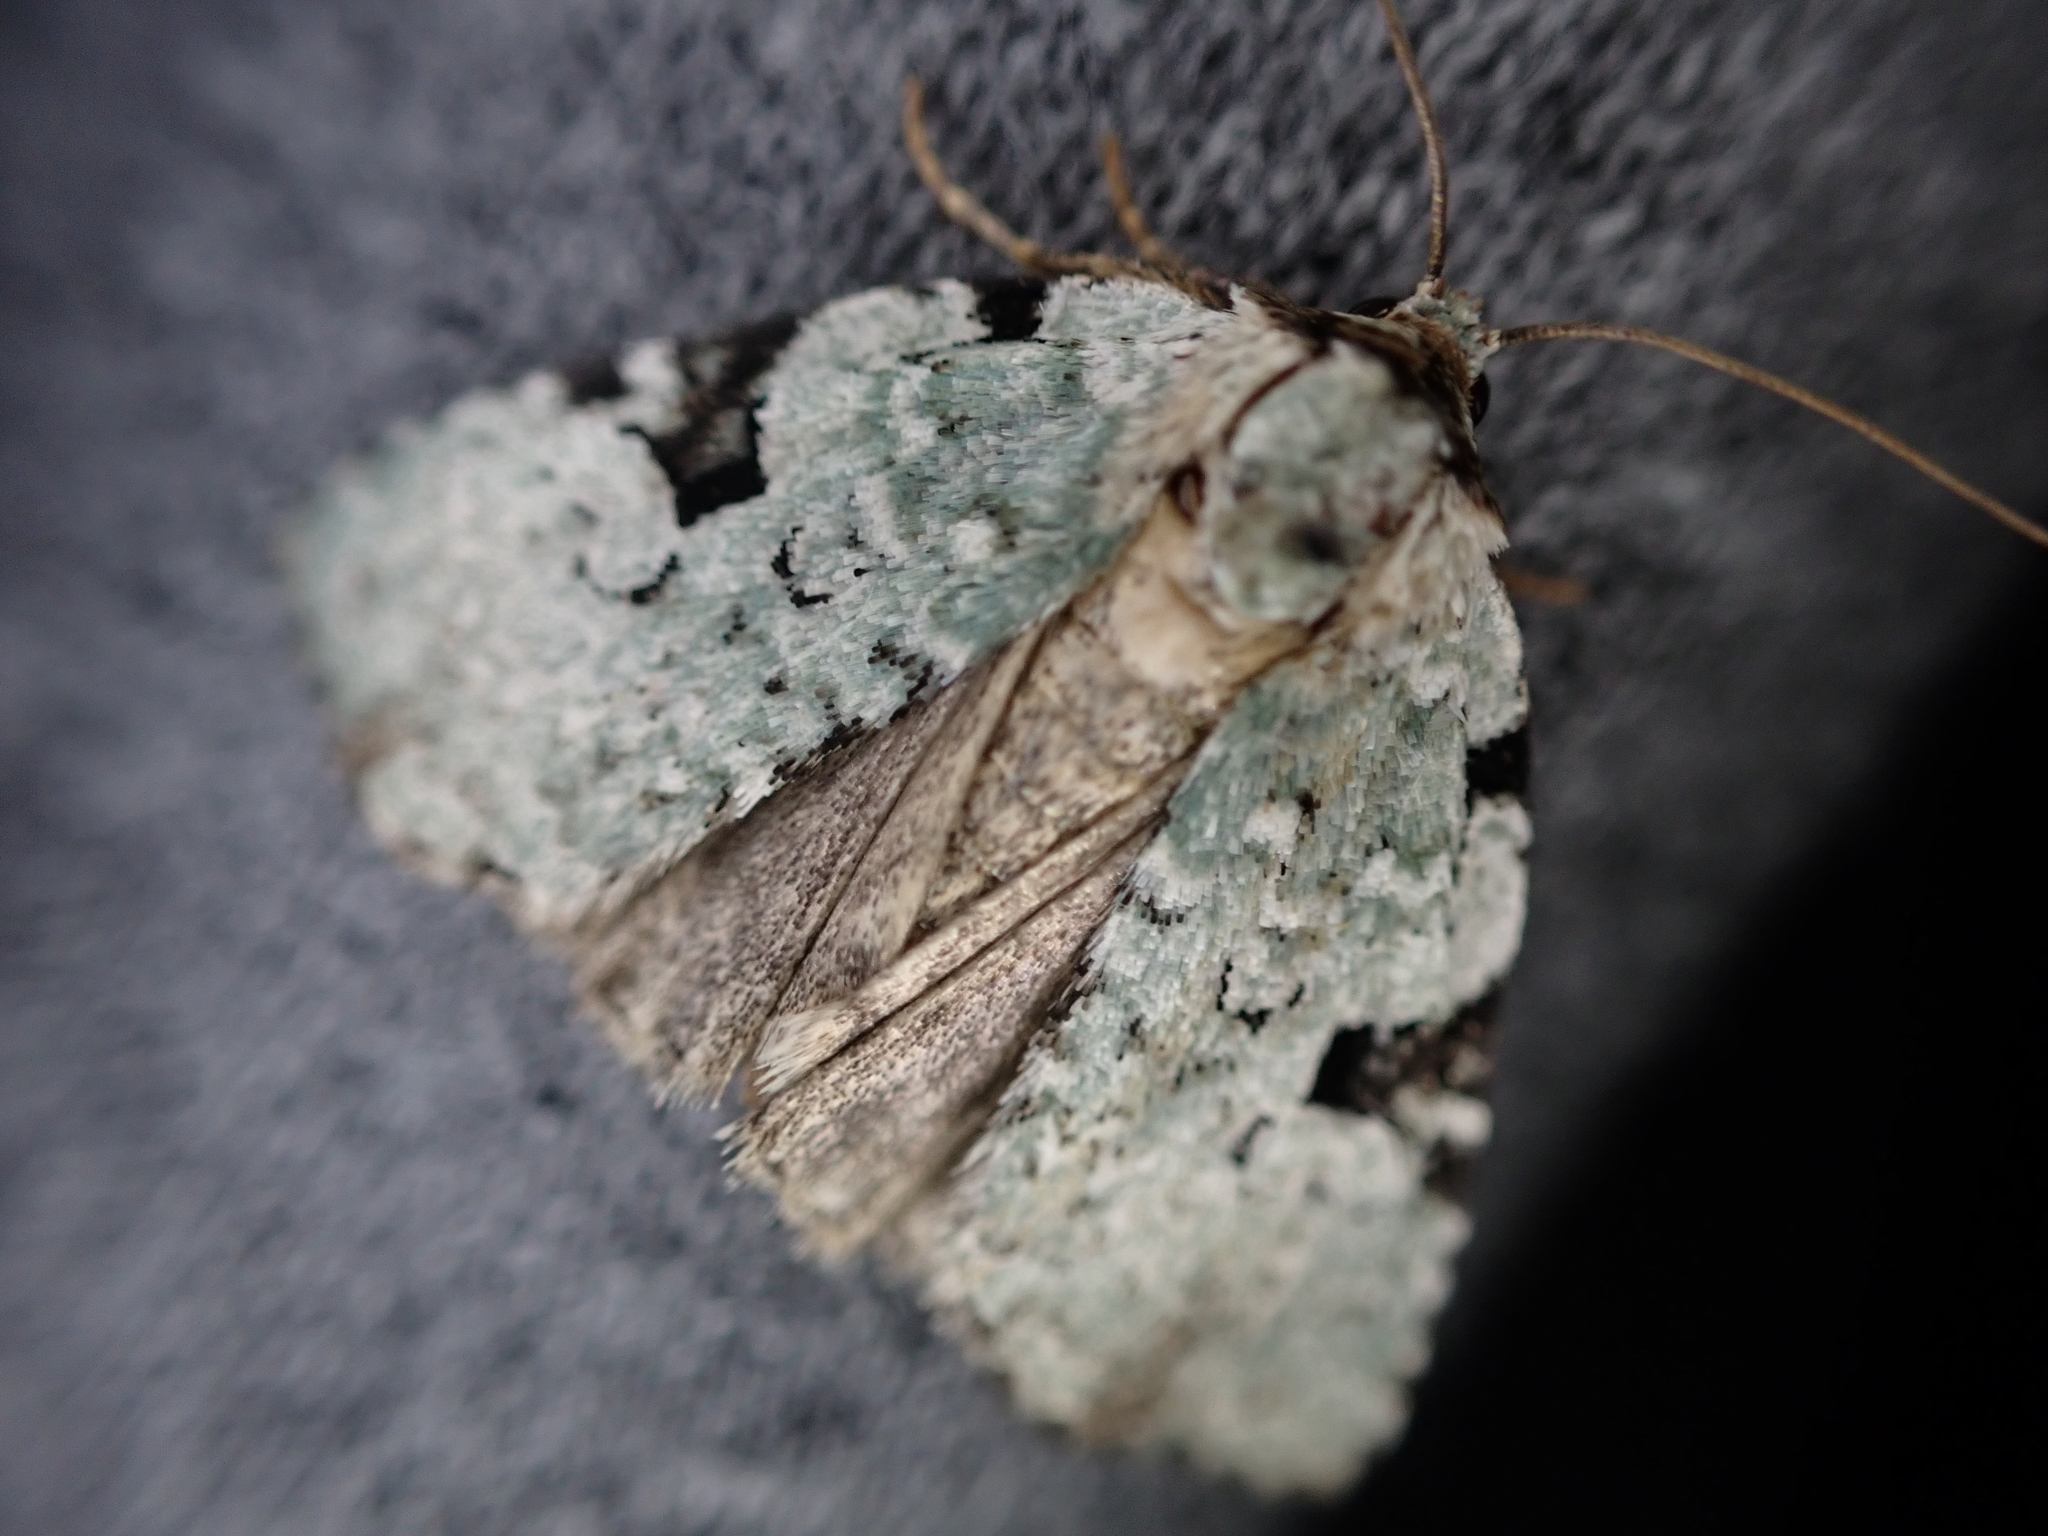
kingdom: Animalia
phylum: Arthropoda
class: Insecta
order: Lepidoptera
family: Noctuidae
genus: Leuconycta
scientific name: Leuconycta diphteroides
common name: Green leuconycta moth
